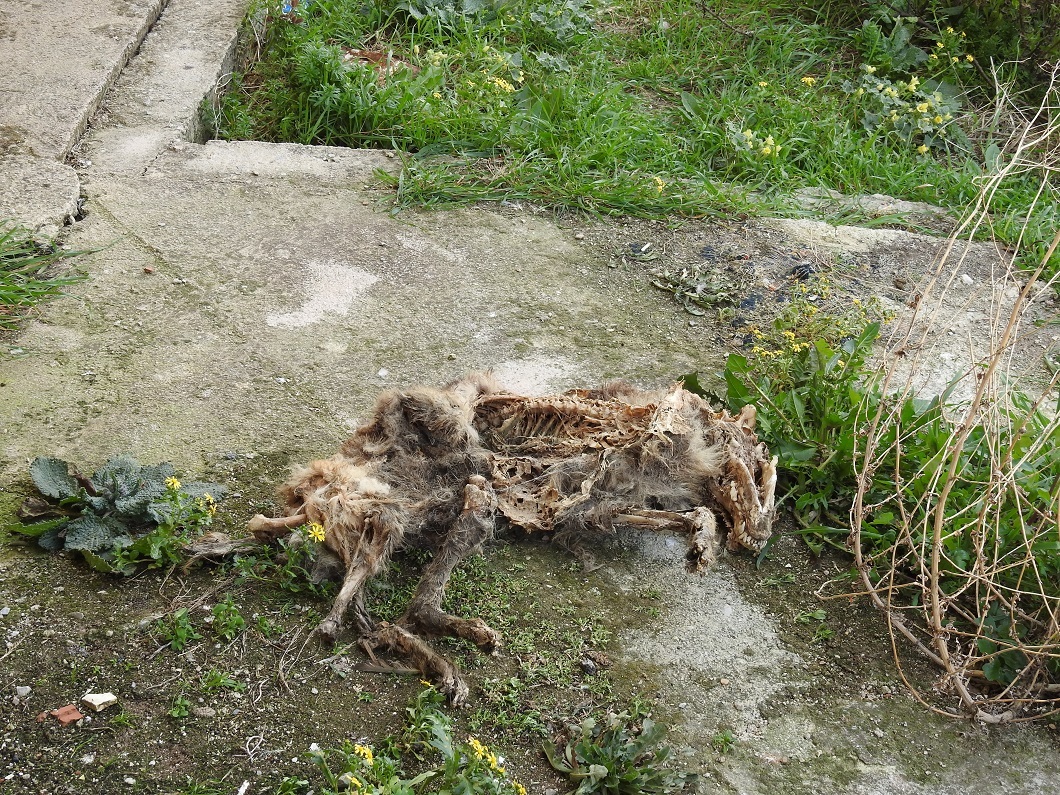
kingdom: Animalia
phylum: Chordata
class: Mammalia
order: Carnivora
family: Canidae
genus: Canis
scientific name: Canis lupus
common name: Gray wolf
